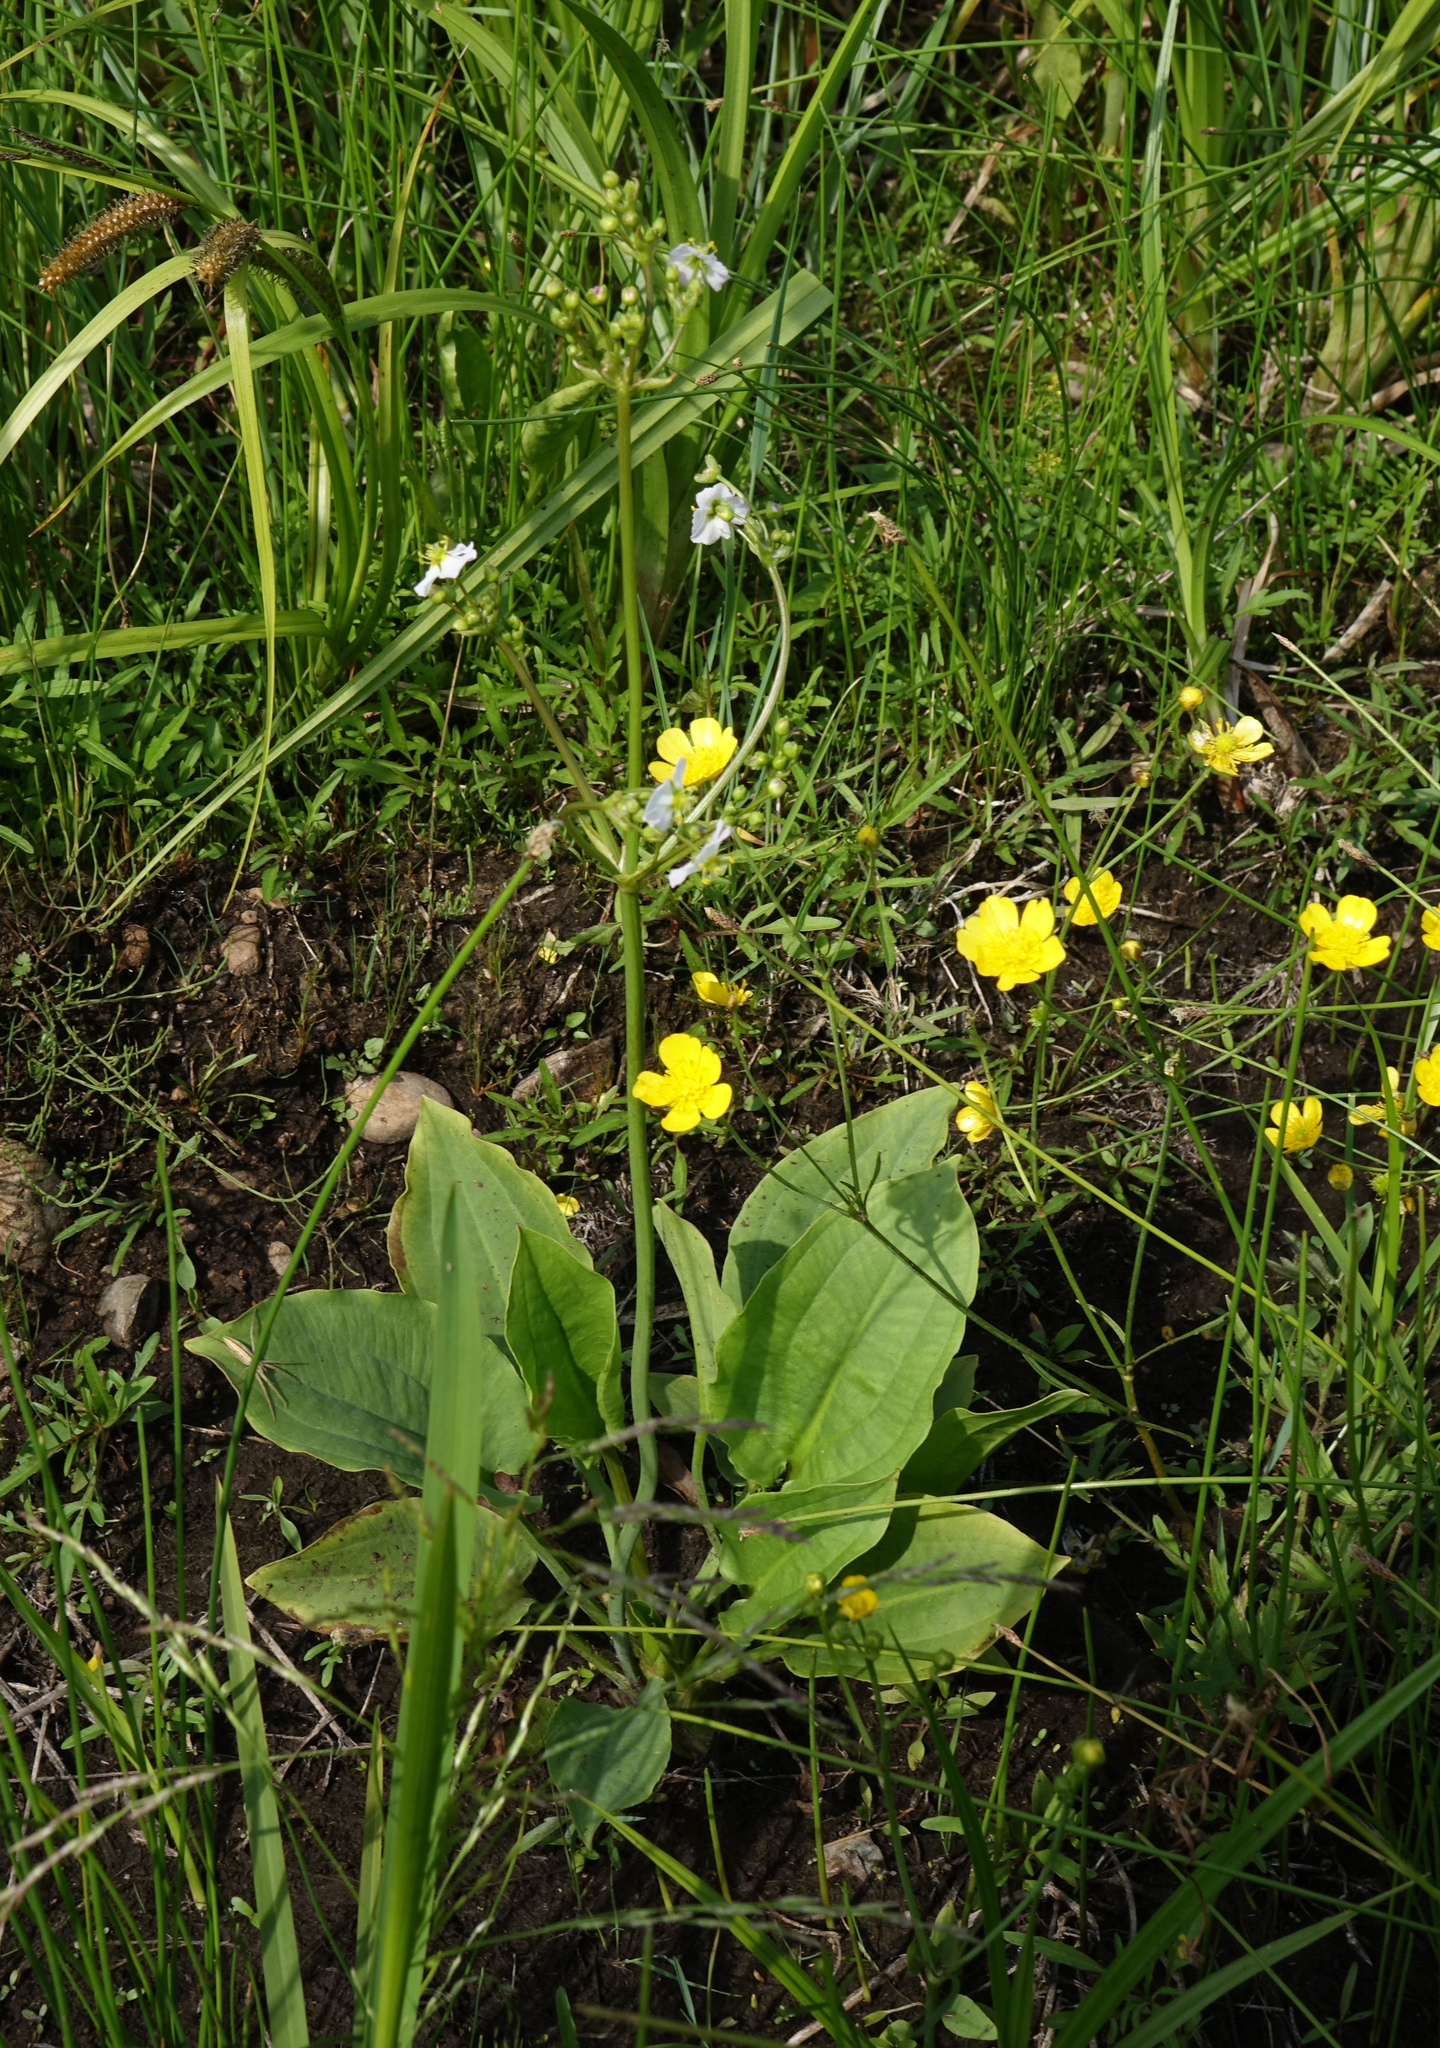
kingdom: Plantae
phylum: Tracheophyta
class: Liliopsida
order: Alismatales
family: Alismataceae
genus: Alisma
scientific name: Alisma plantago-aquatica
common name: Water-plantain
